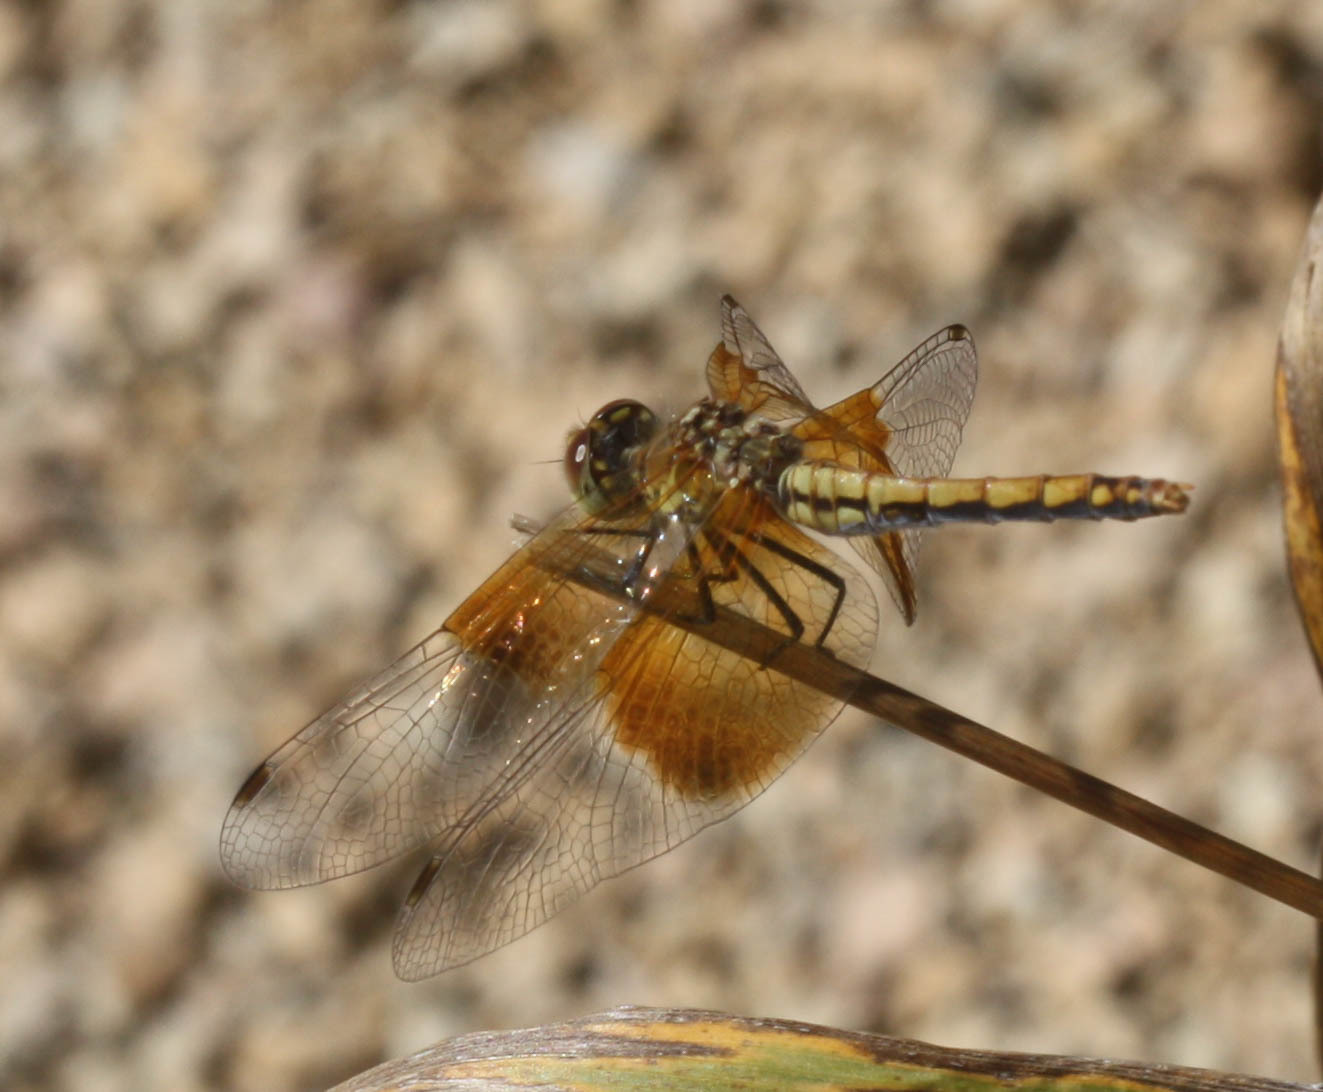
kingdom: Animalia
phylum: Arthropoda
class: Insecta
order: Odonata
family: Libellulidae
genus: Sympetrum
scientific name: Sympetrum semicinctum
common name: Band-winged meadowhawk
